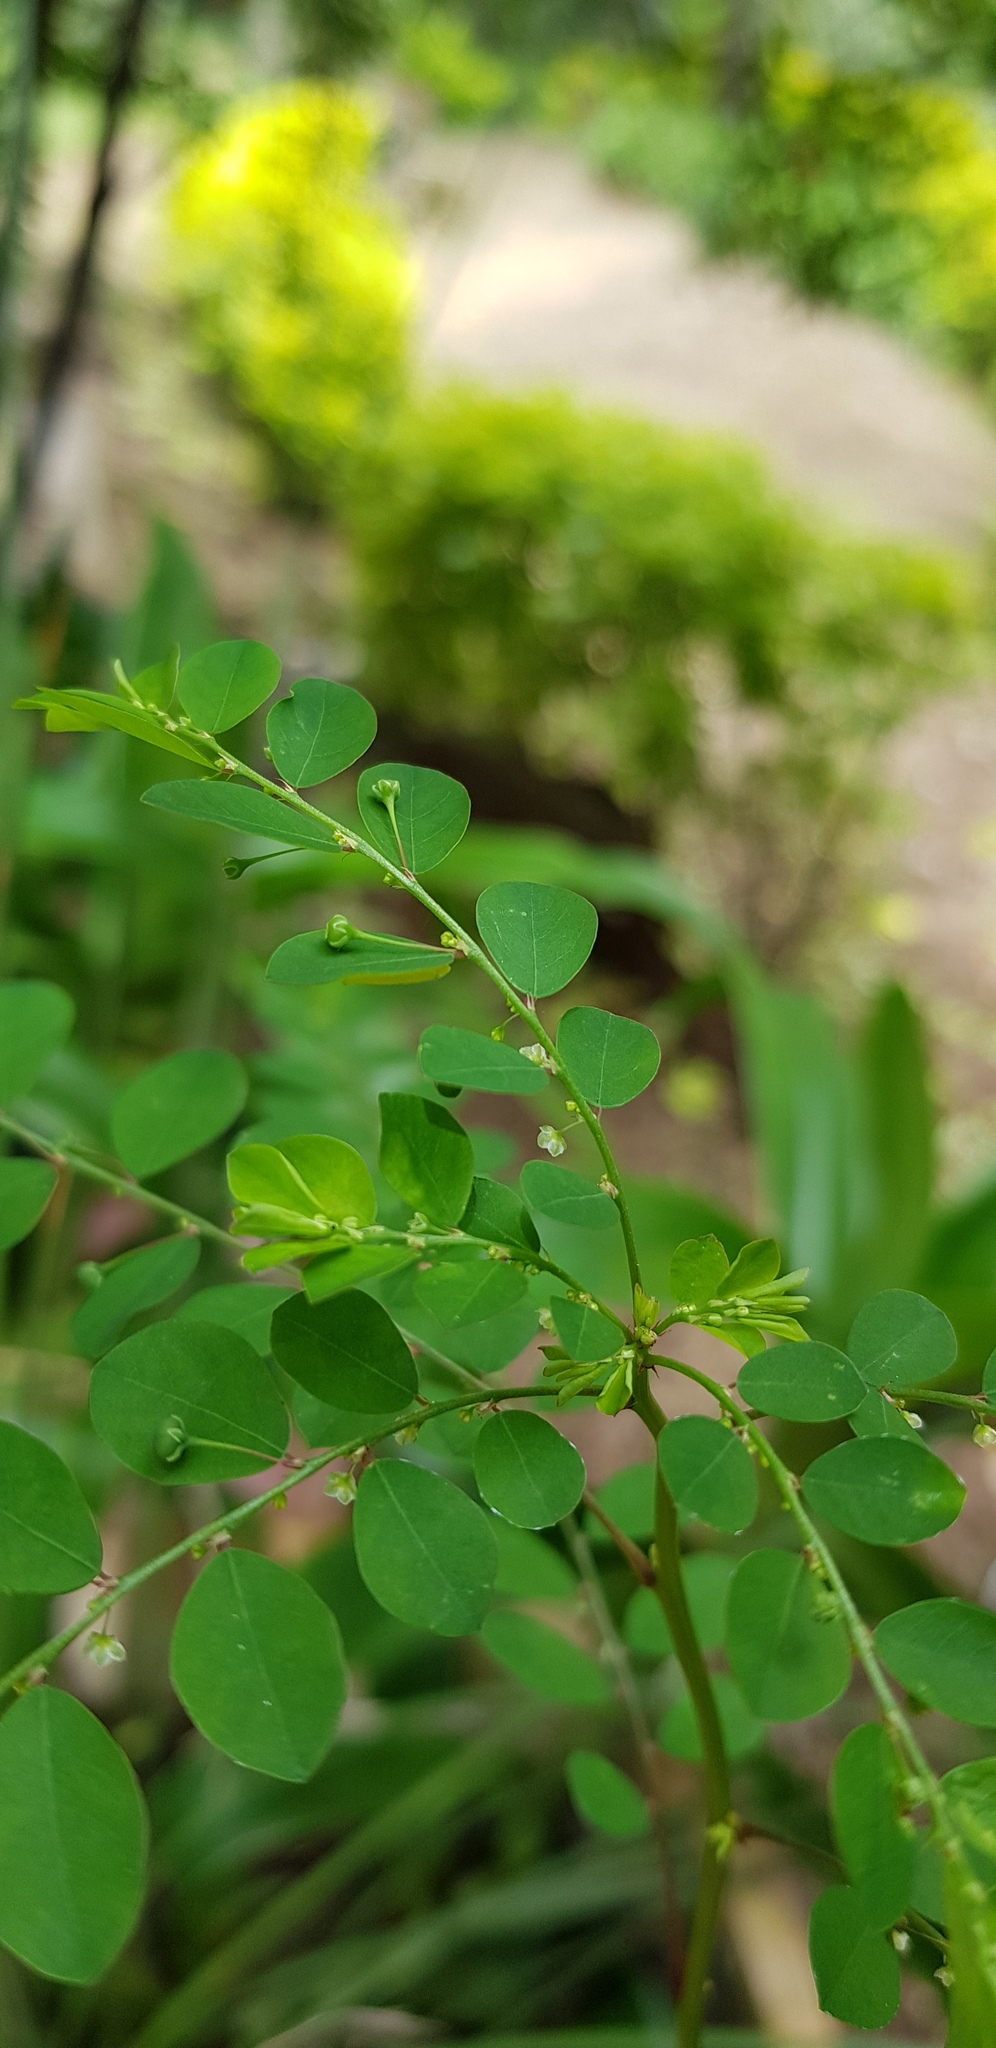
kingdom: Plantae
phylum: Tracheophyta
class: Magnoliopsida
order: Malpighiales
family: Phyllanthaceae
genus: Phyllanthus
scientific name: Phyllanthus niruri
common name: Niruri
